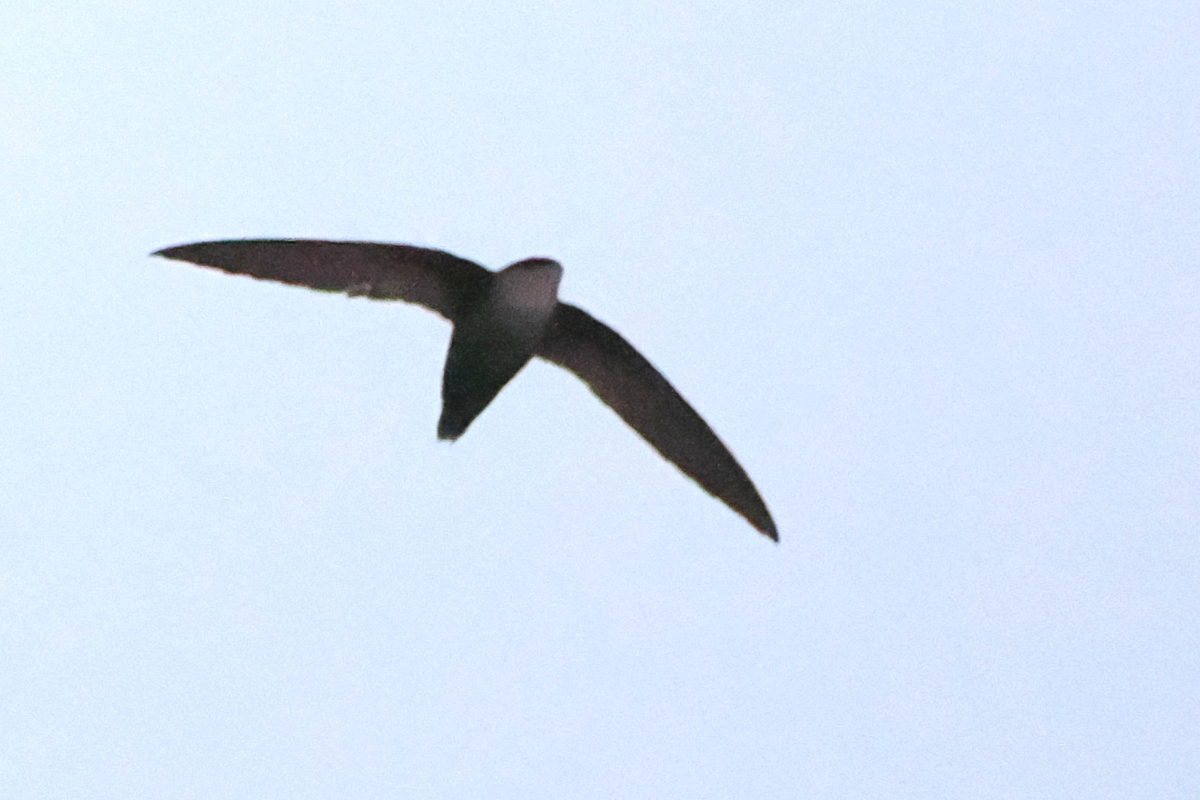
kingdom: Animalia
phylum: Chordata
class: Aves
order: Apodiformes
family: Apodidae
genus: Chaetura
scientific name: Chaetura pelagica
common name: Chimney swift
